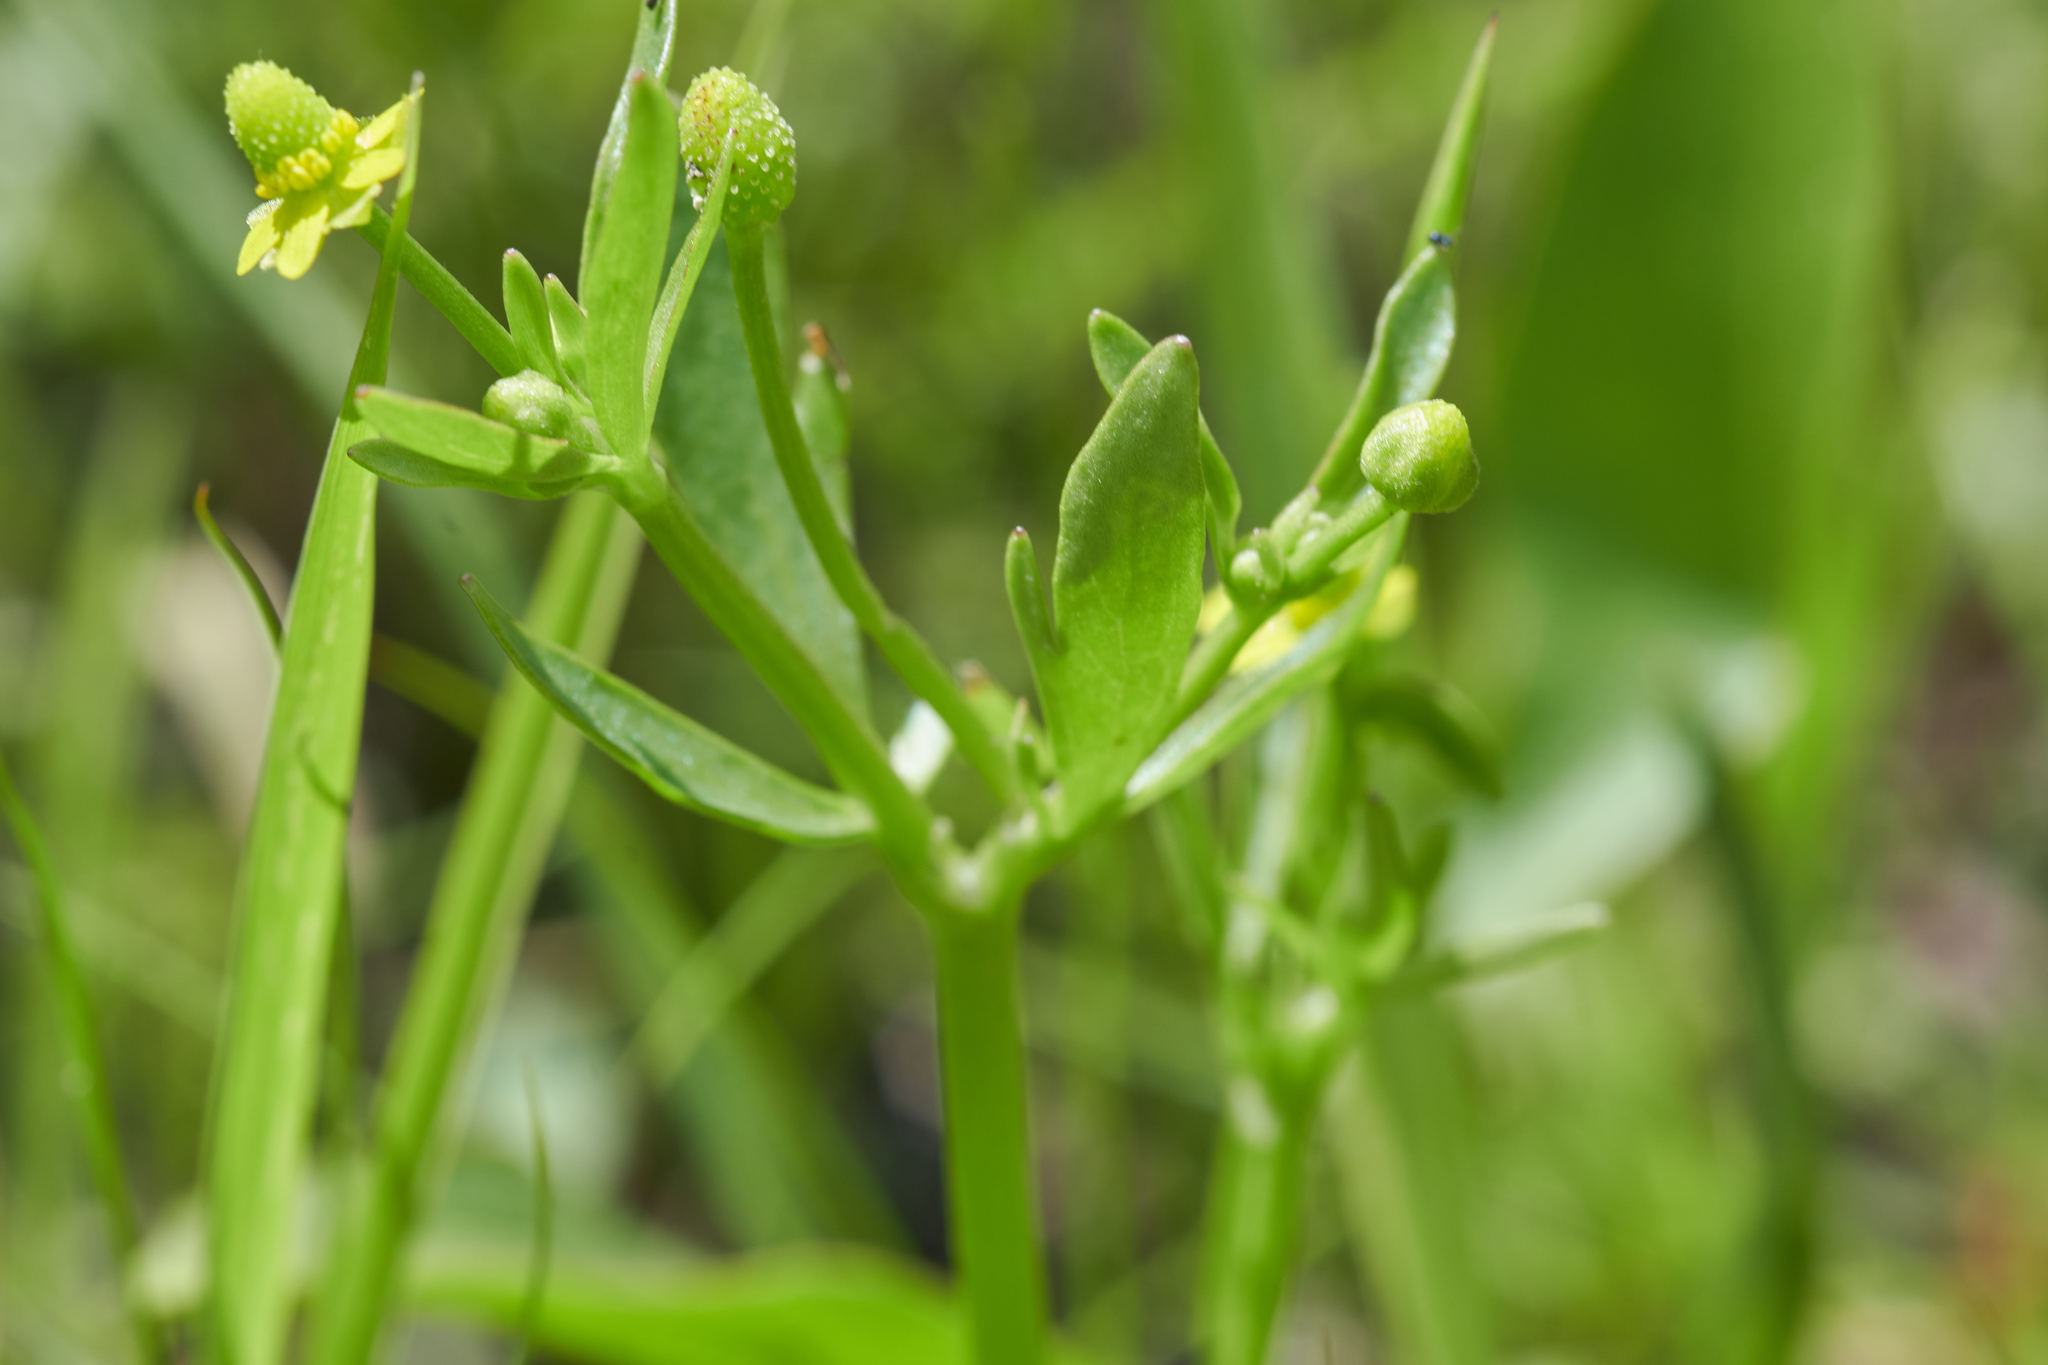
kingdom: Plantae
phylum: Tracheophyta
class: Magnoliopsida
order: Ranunculales
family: Ranunculaceae
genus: Ranunculus
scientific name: Ranunculus abortivus
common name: Early wood buttercup
